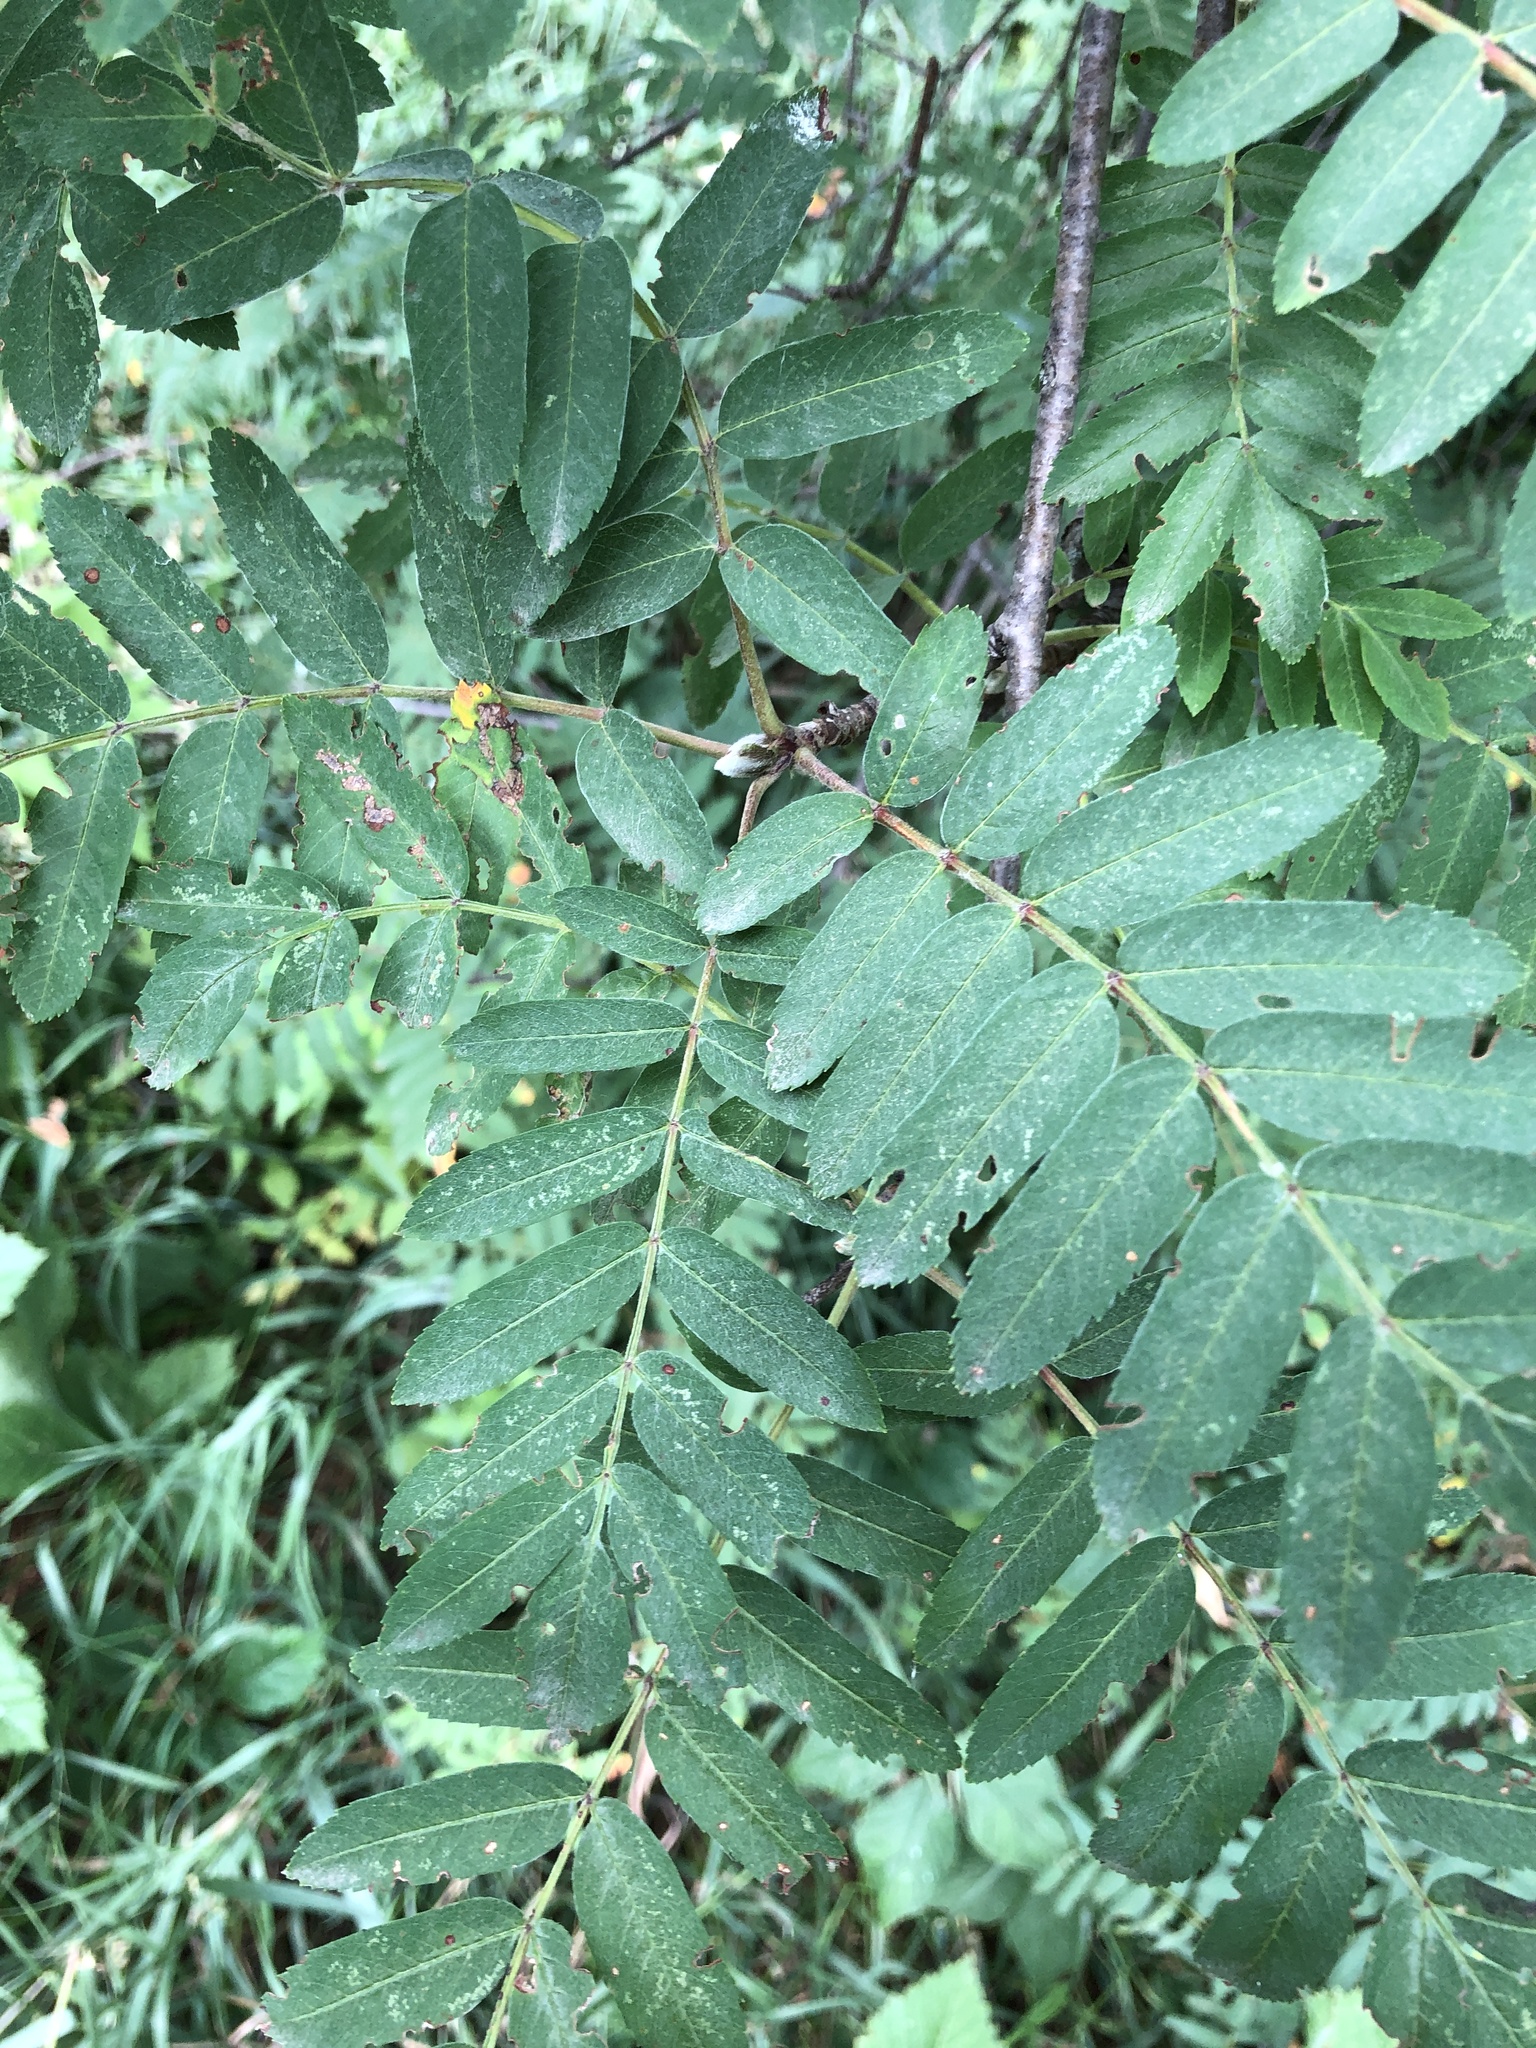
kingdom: Plantae
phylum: Tracheophyta
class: Magnoliopsida
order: Rosales
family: Rosaceae
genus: Sorbus
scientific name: Sorbus aucuparia
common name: Rowan
